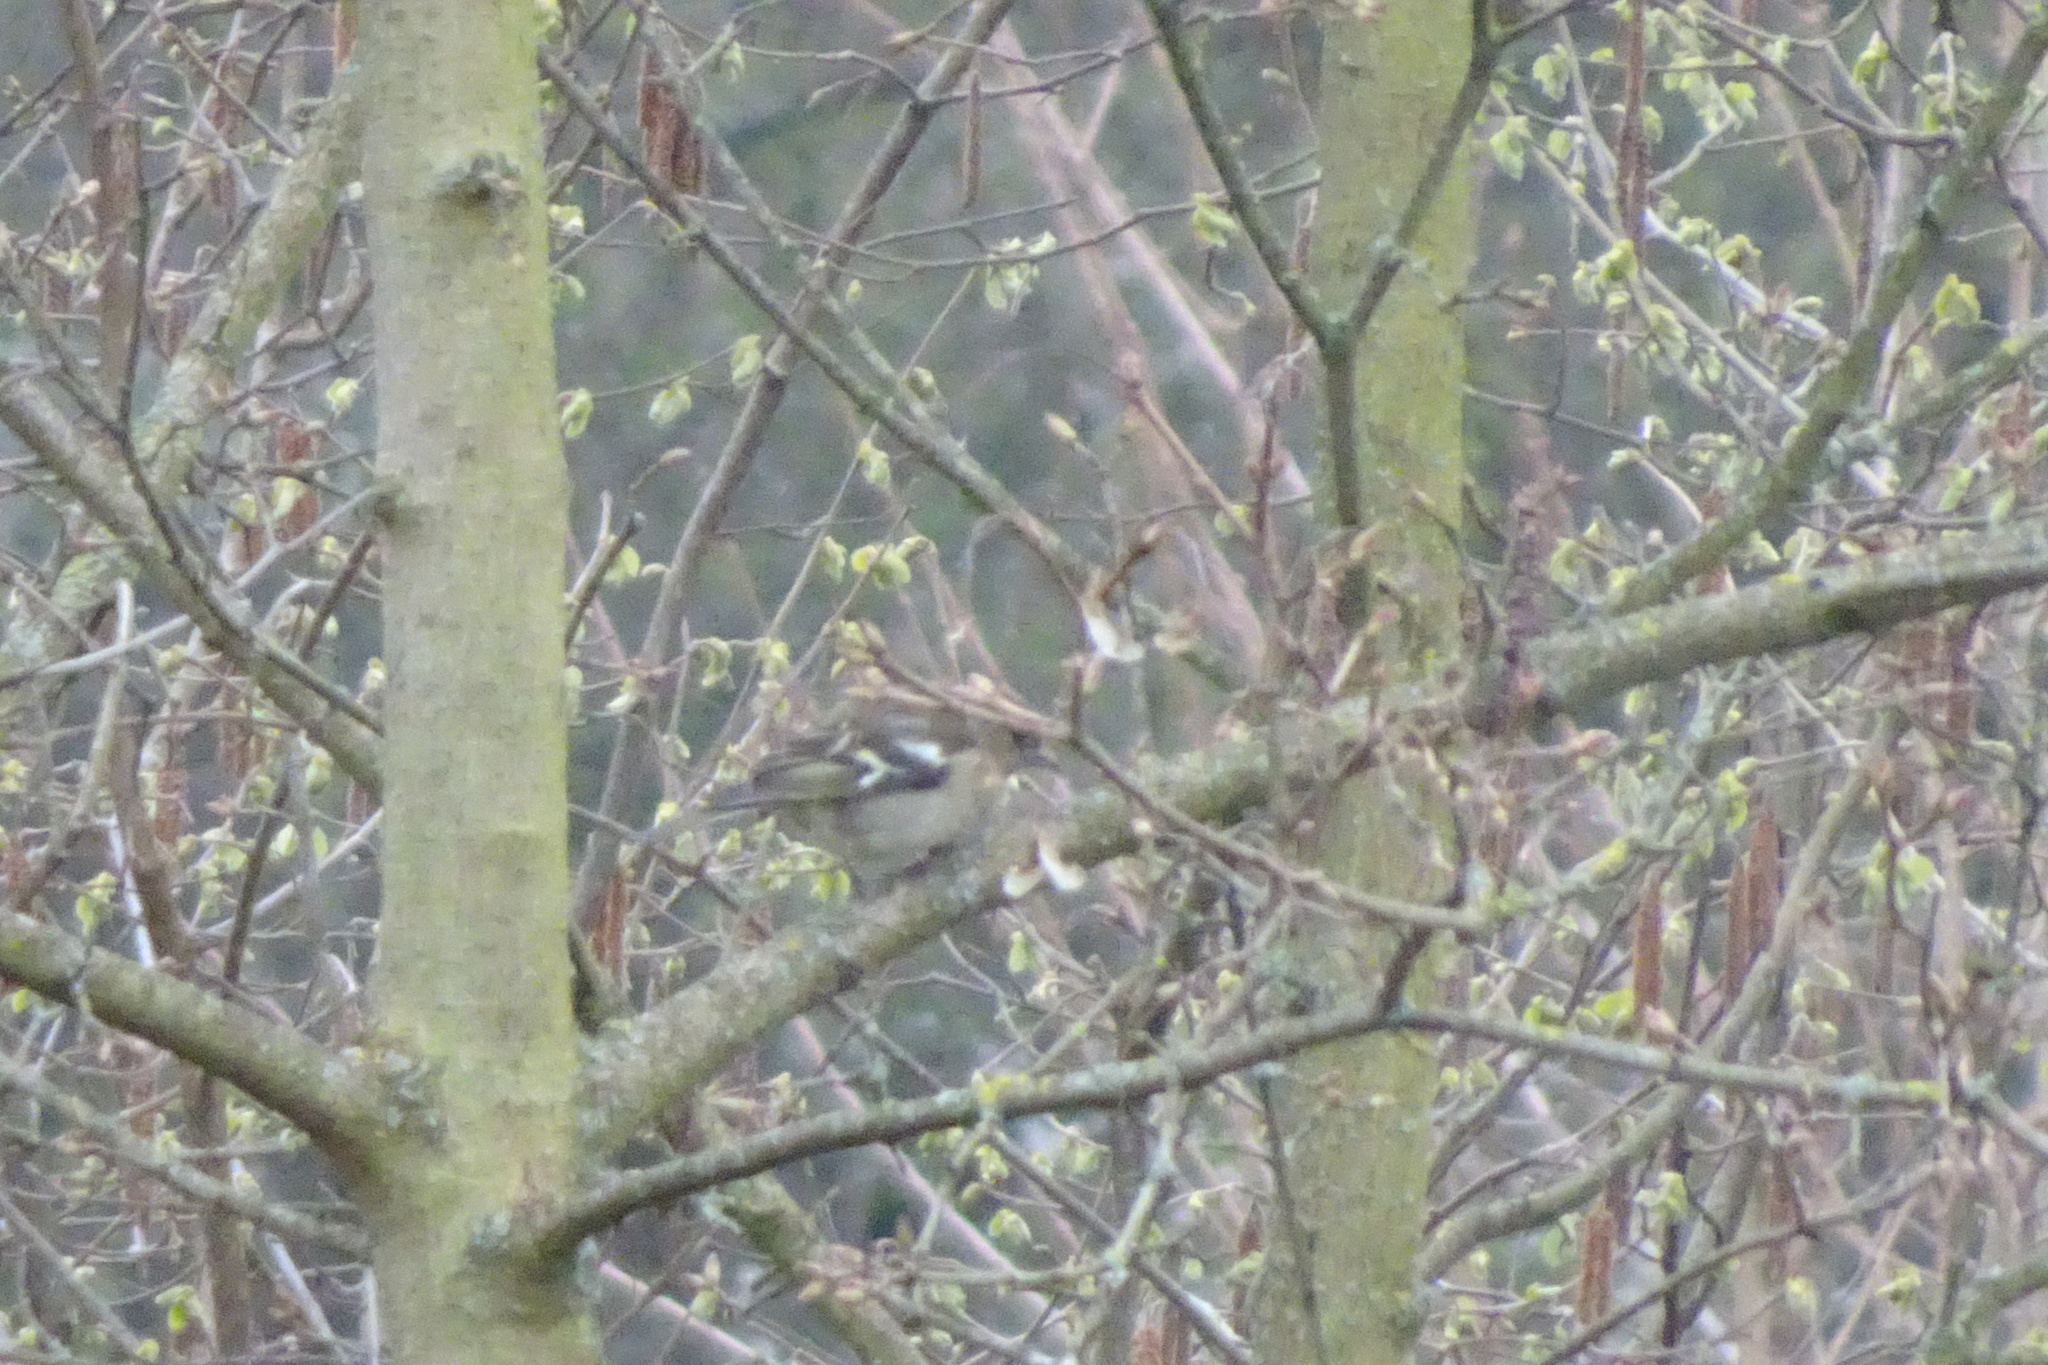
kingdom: Animalia
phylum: Chordata
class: Aves
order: Passeriformes
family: Fringillidae
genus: Fringilla
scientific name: Fringilla coelebs
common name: Common chaffinch
